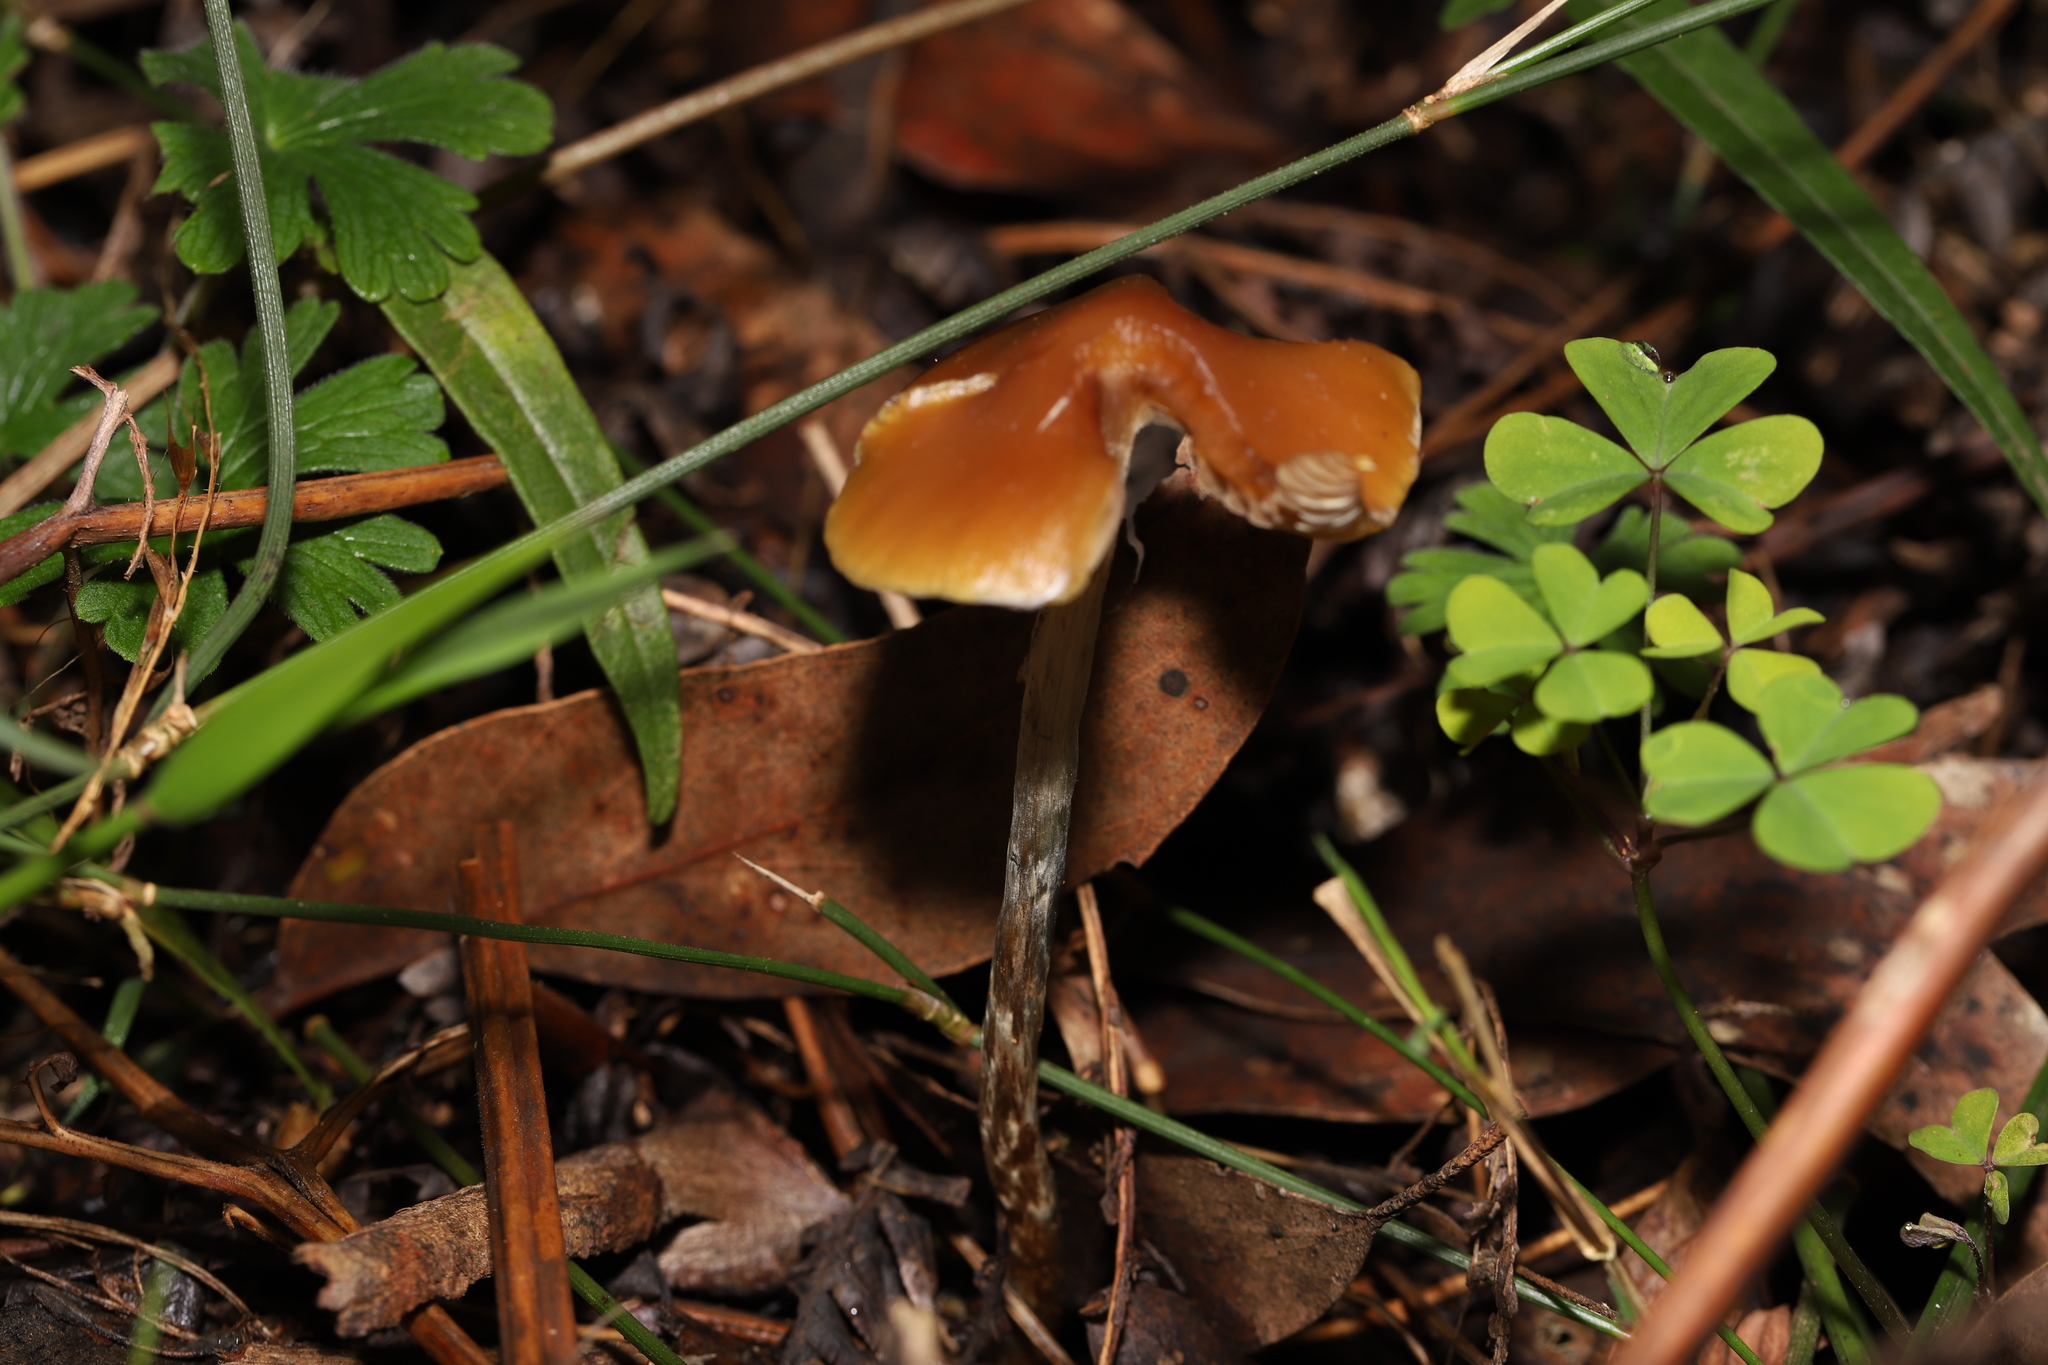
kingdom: Fungi
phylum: Basidiomycota
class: Agaricomycetes
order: Agaricales
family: Hymenogastraceae
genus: Psilocybe
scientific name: Psilocybe subaeruginosa
